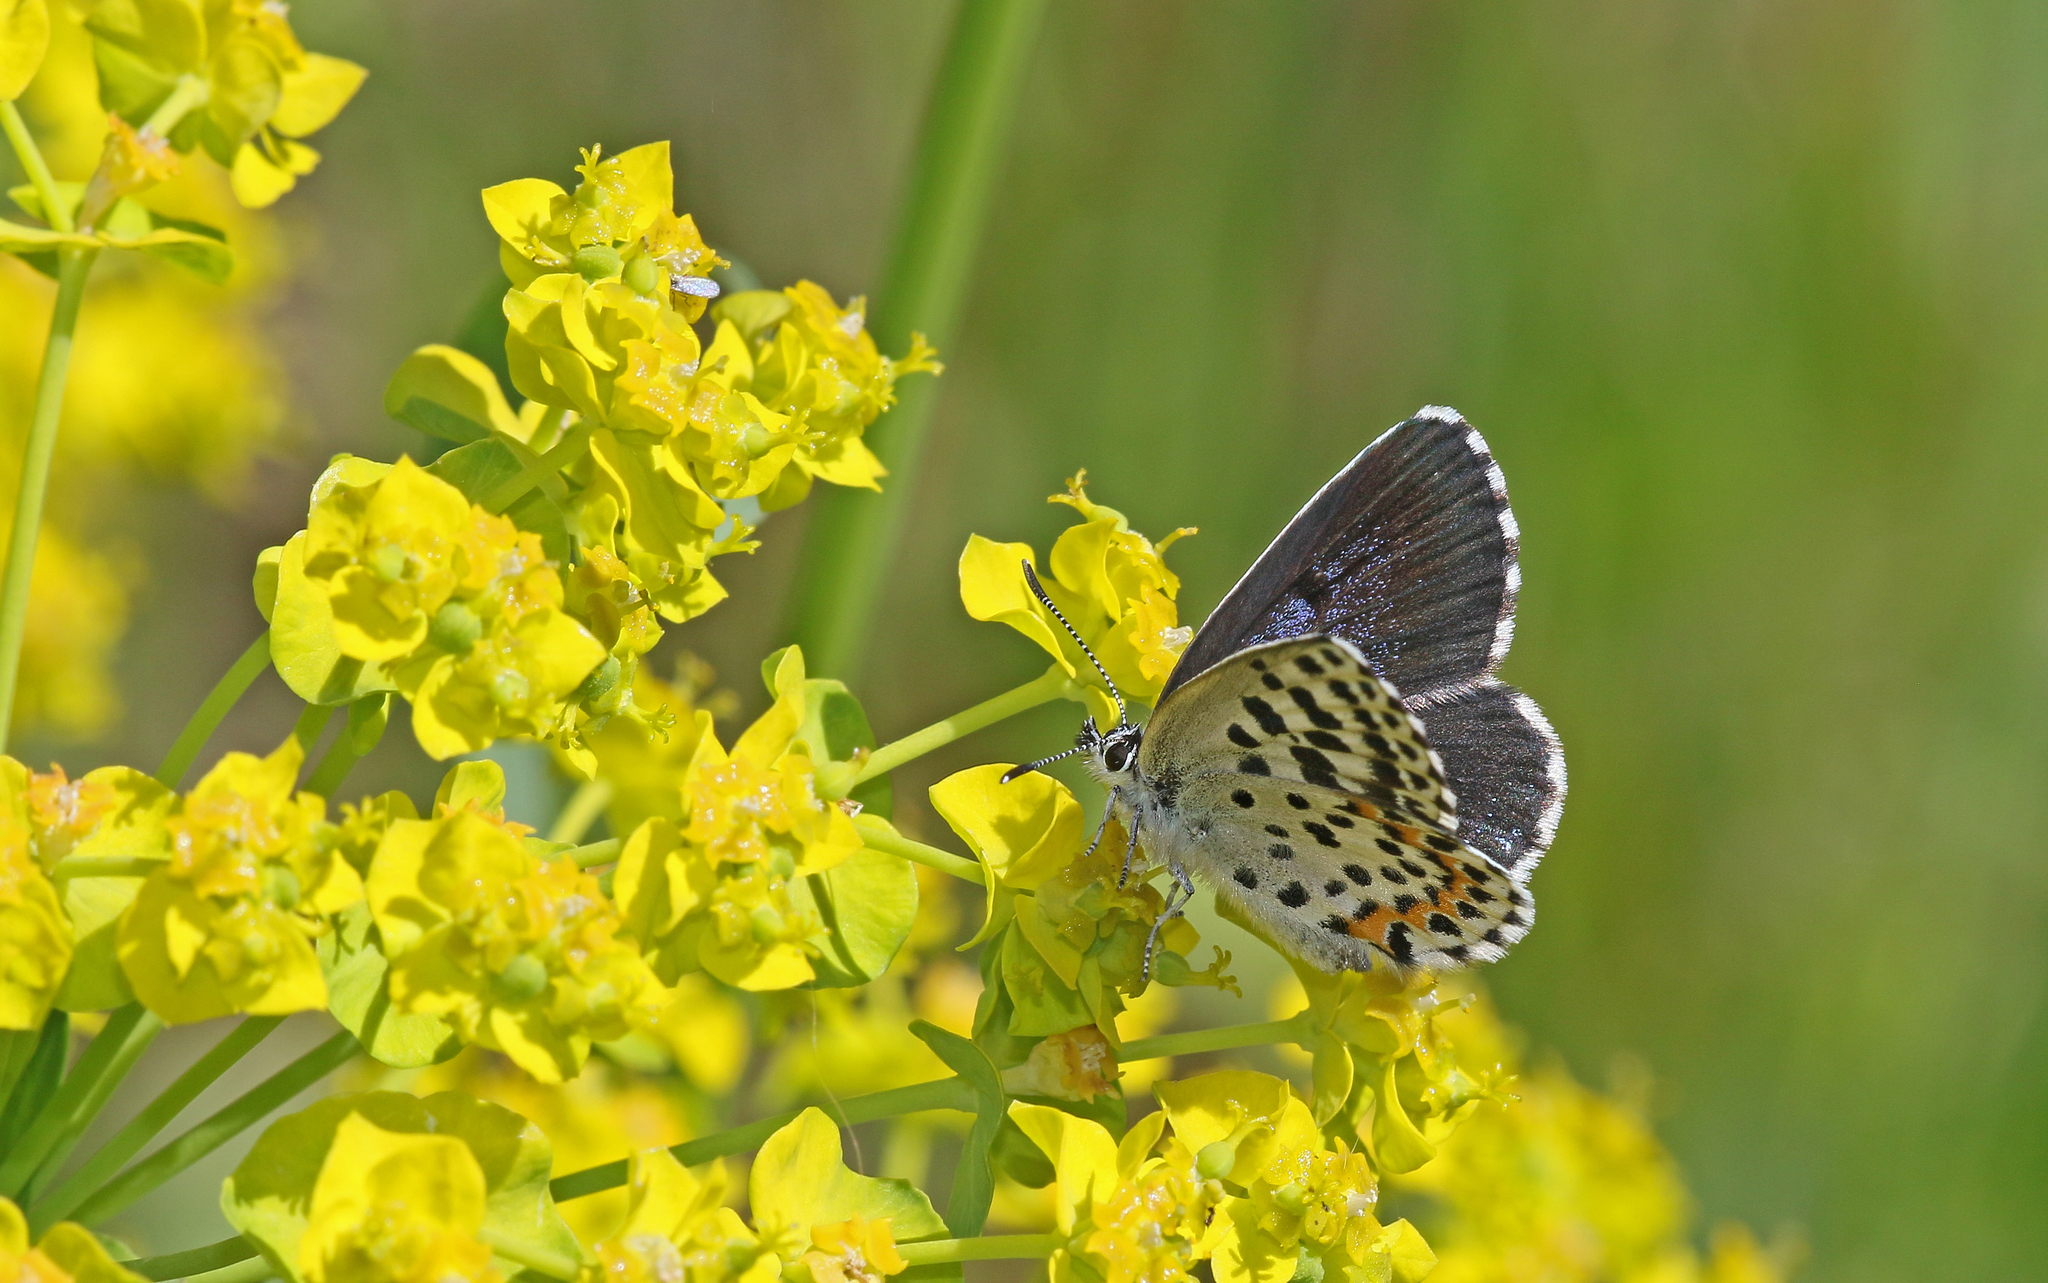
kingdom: Animalia
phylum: Arthropoda
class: Insecta
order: Lepidoptera
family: Lycaenidae
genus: Scolitantides
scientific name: Scolitantides orion
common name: Chequered blue
